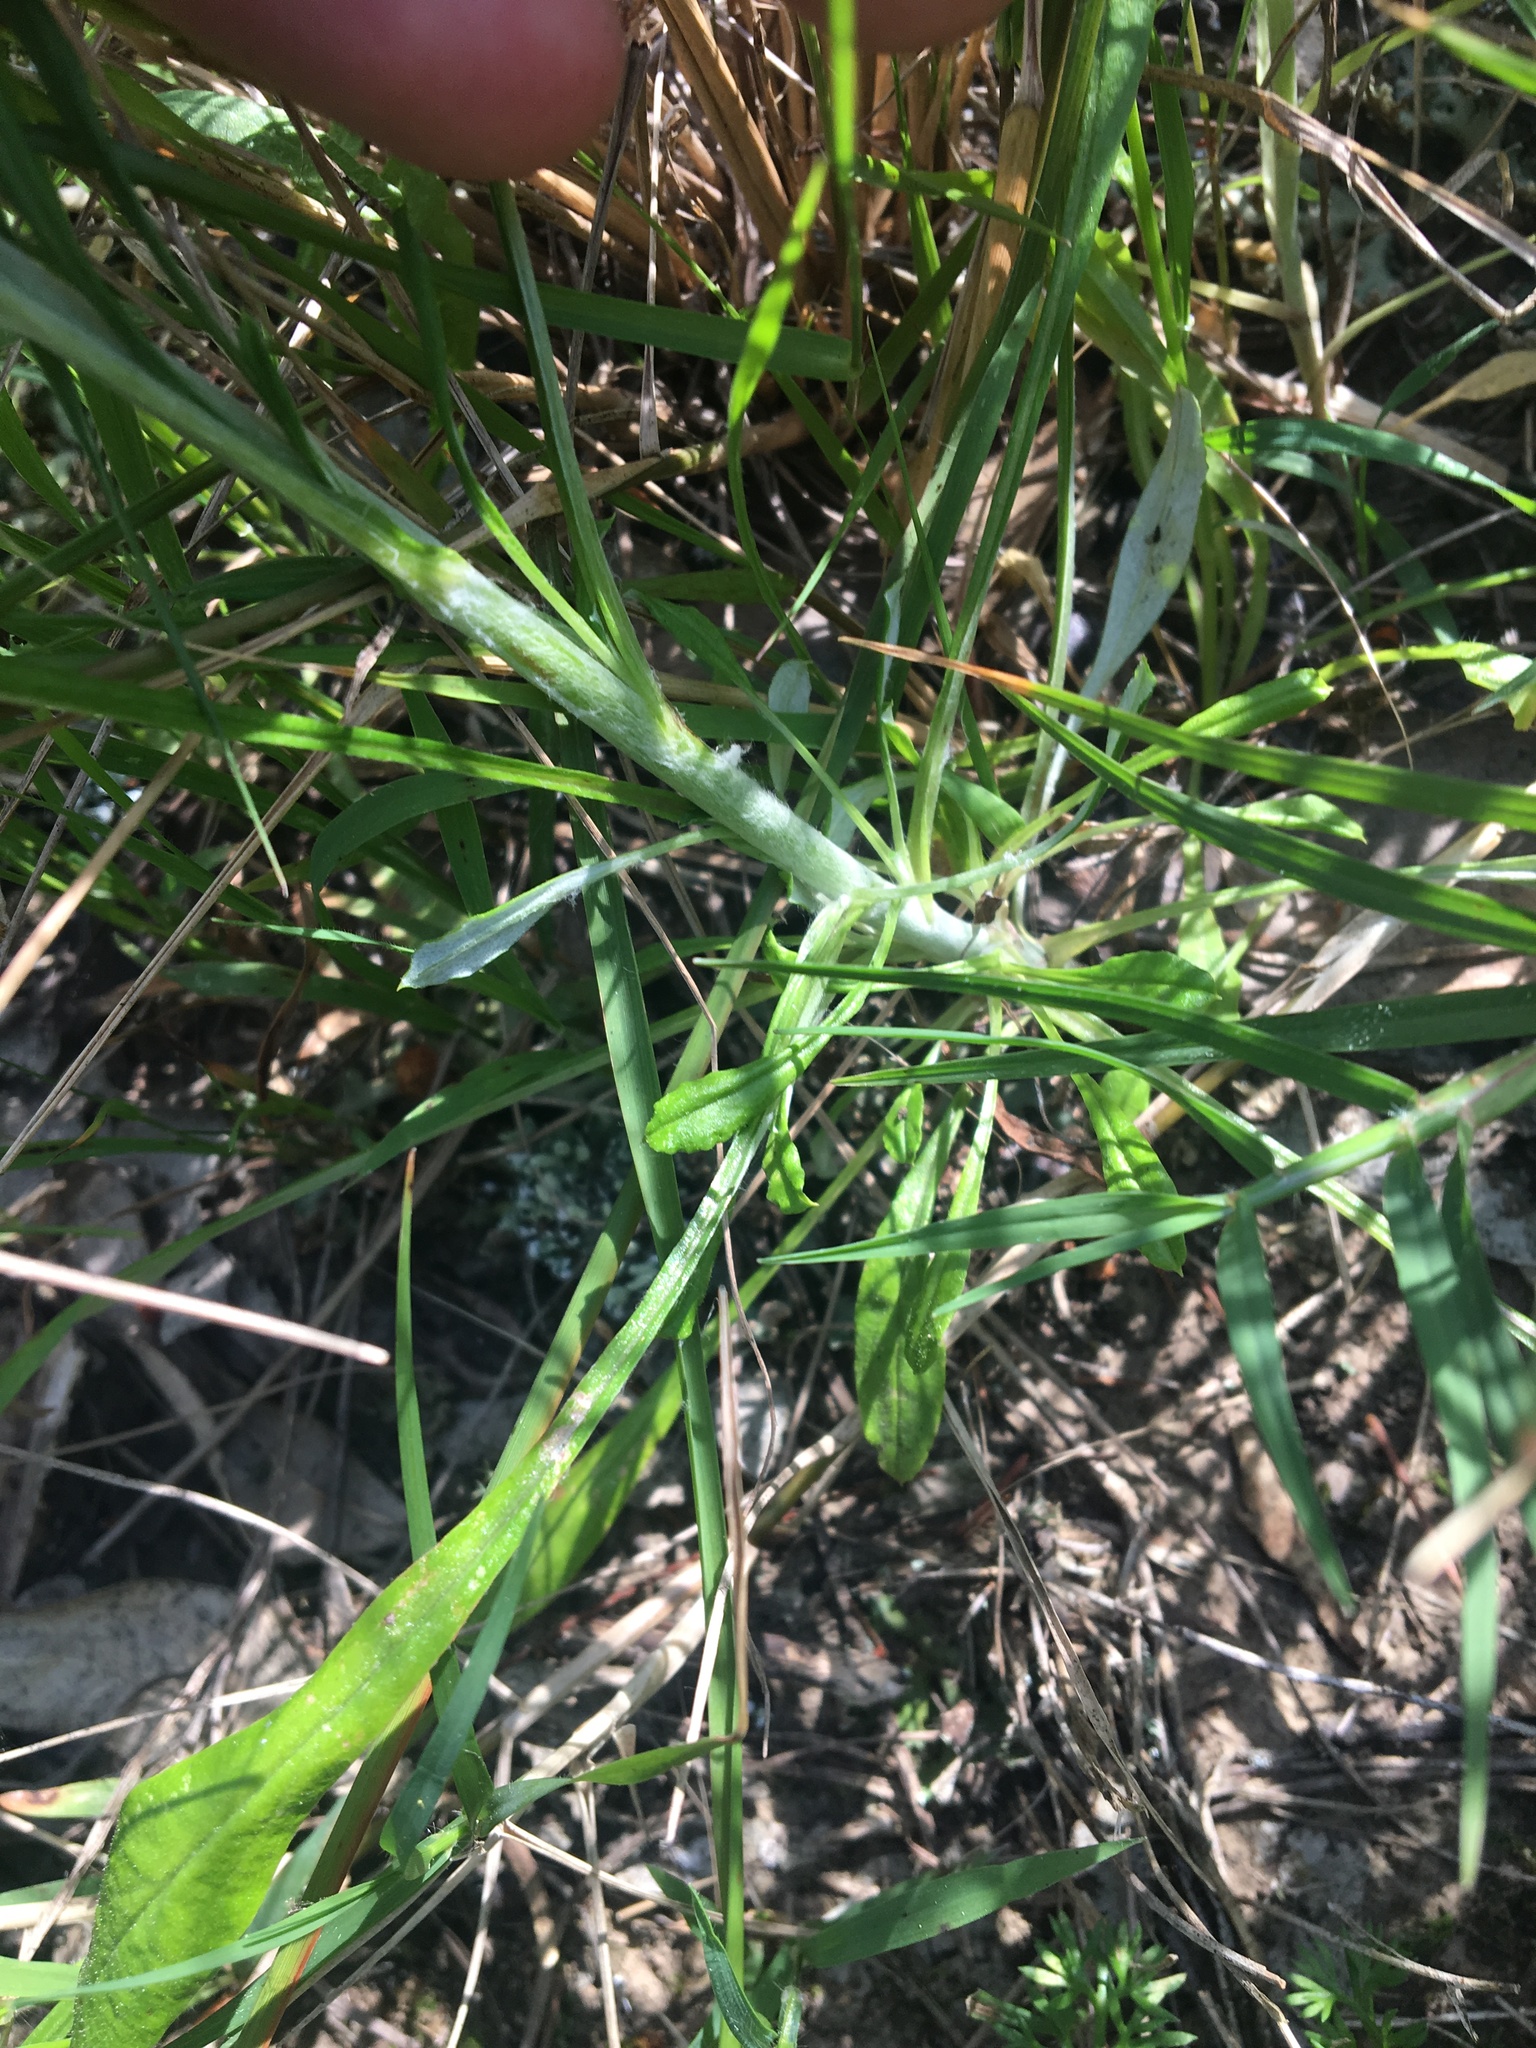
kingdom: Plantae
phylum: Tracheophyta
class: Magnoliopsida
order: Asterales
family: Asteraceae
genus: Euchiton
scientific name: Euchiton sphaericus
